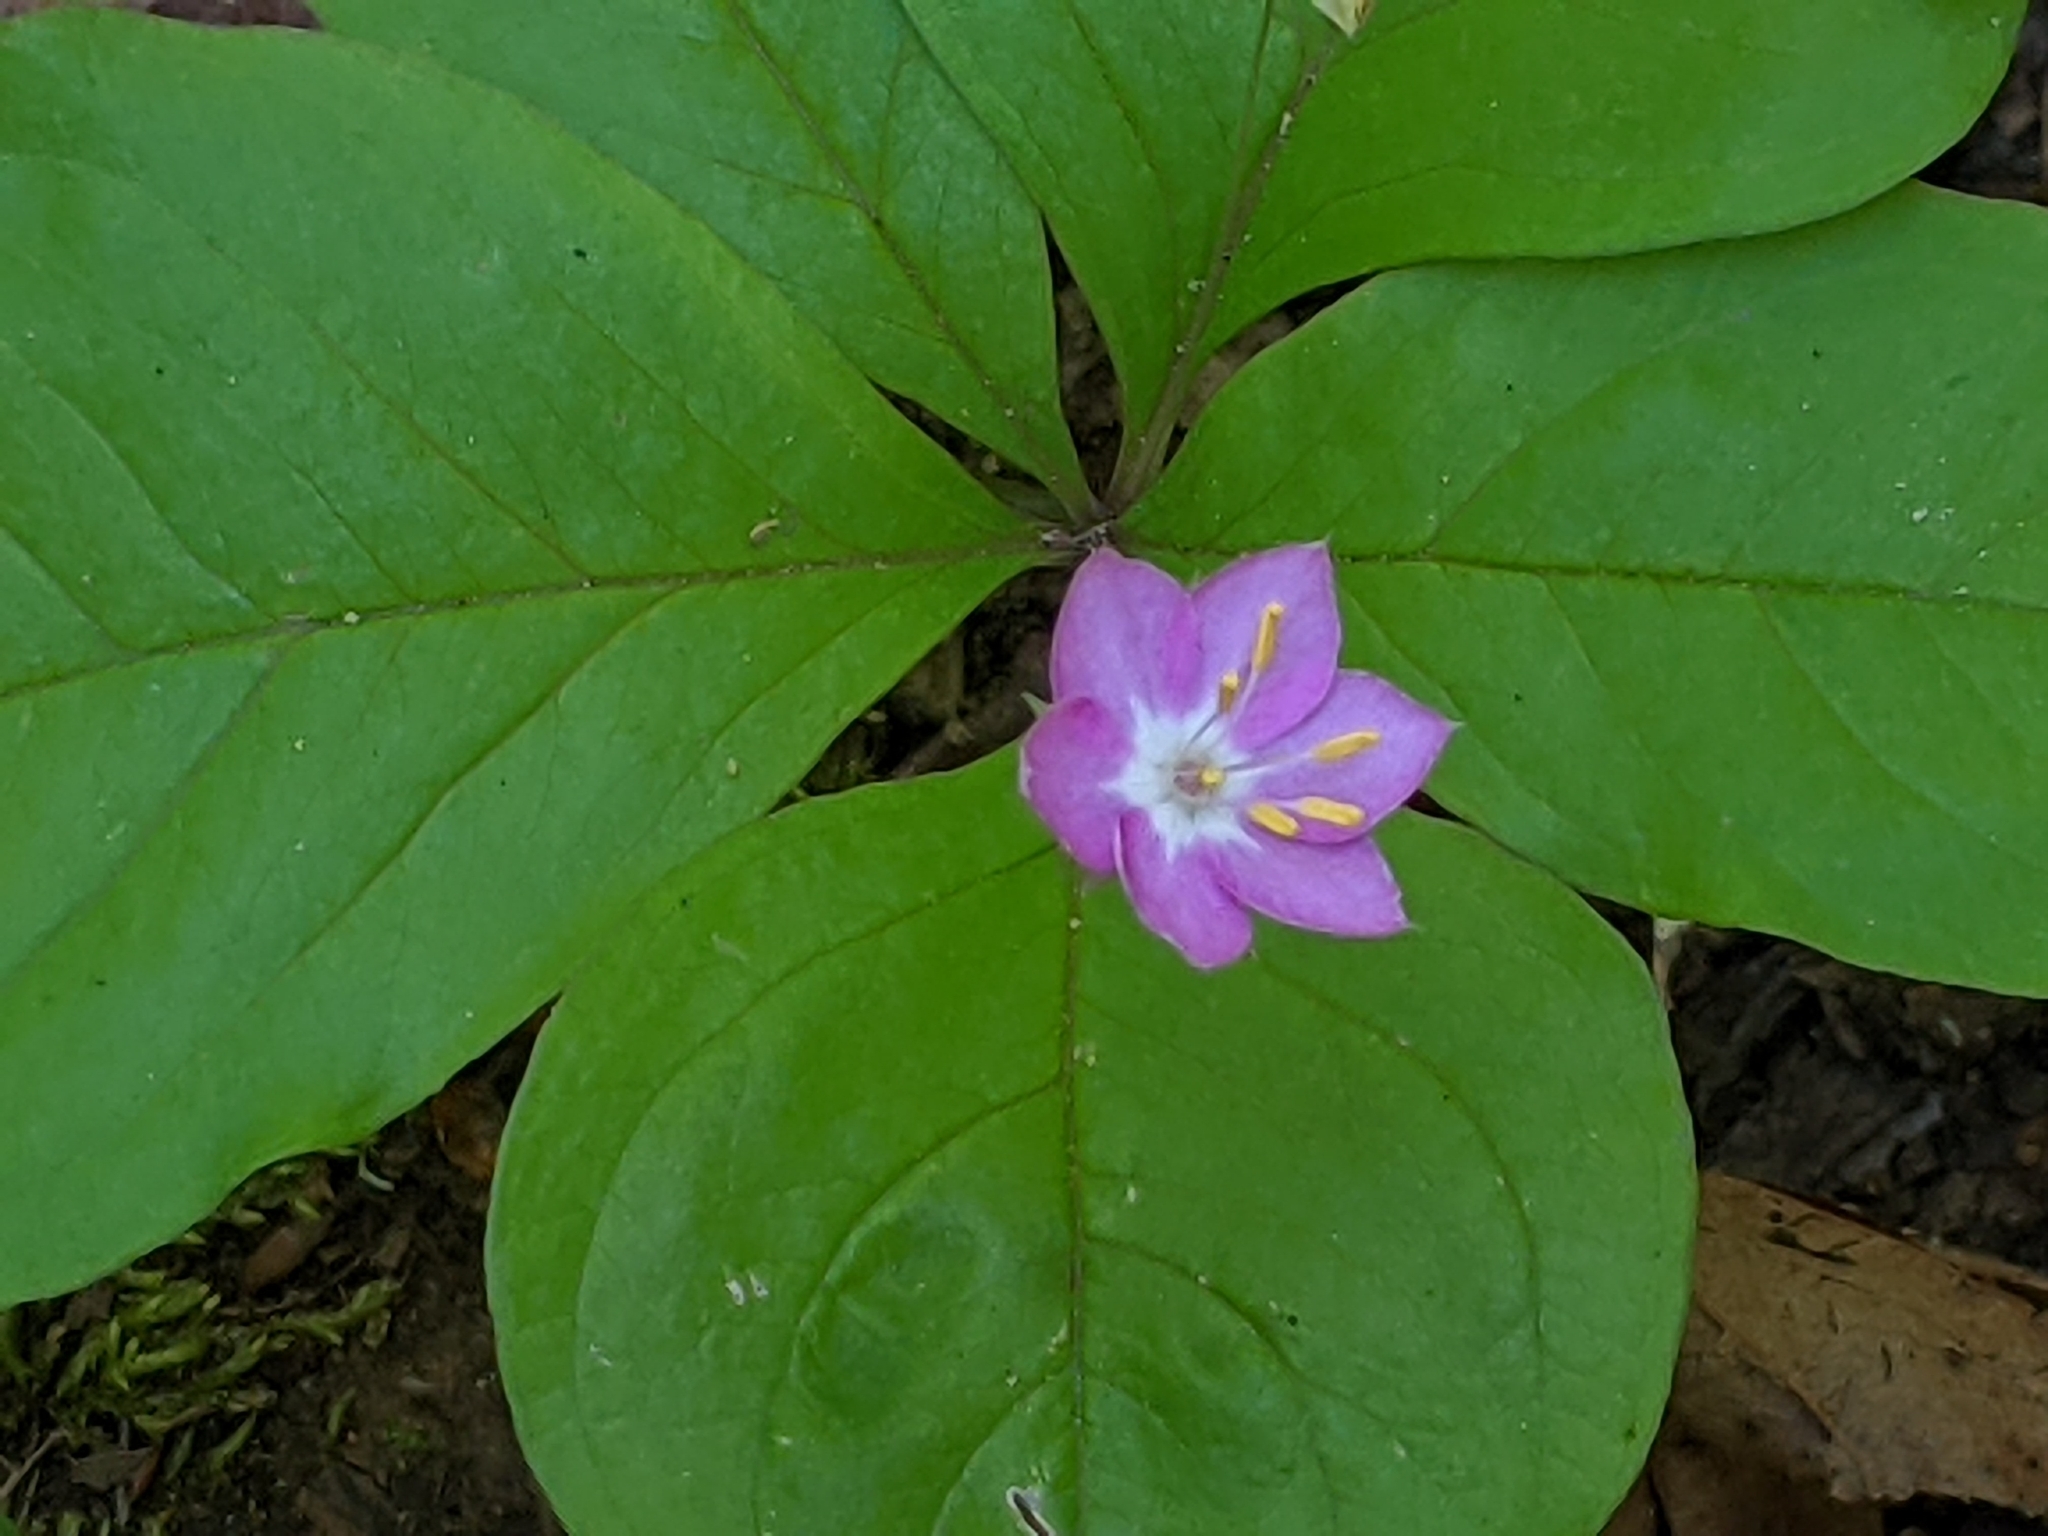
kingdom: Plantae
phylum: Tracheophyta
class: Magnoliopsida
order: Ericales
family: Primulaceae
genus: Lysimachia
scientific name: Lysimachia latifolia
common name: Pacific starflower
